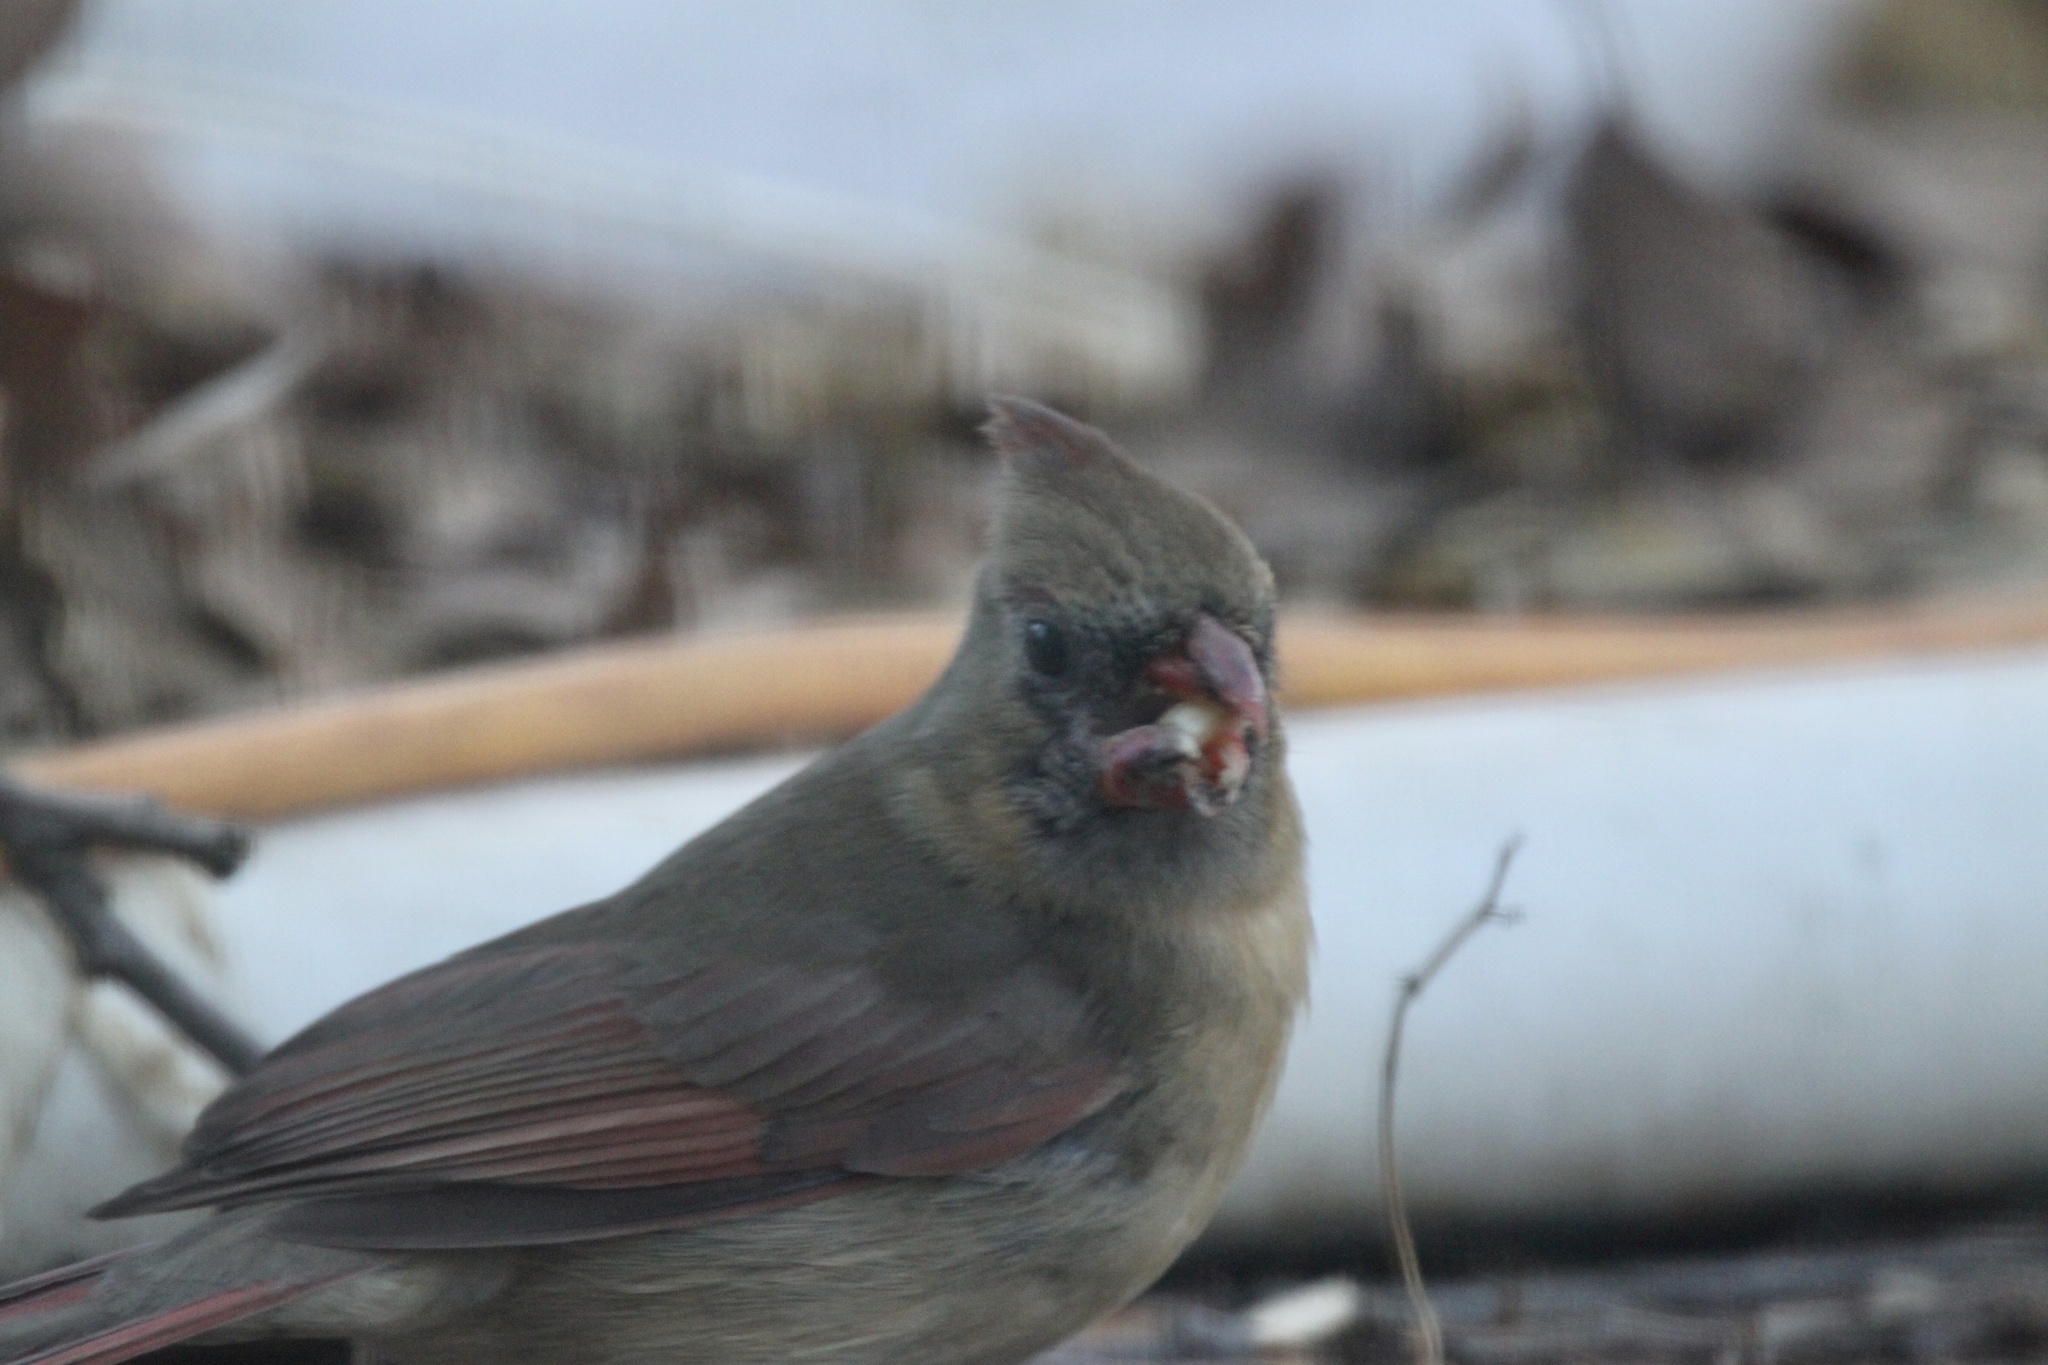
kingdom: Animalia
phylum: Chordata
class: Aves
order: Passeriformes
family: Cardinalidae
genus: Cardinalis
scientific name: Cardinalis cardinalis
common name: Northern cardinal
